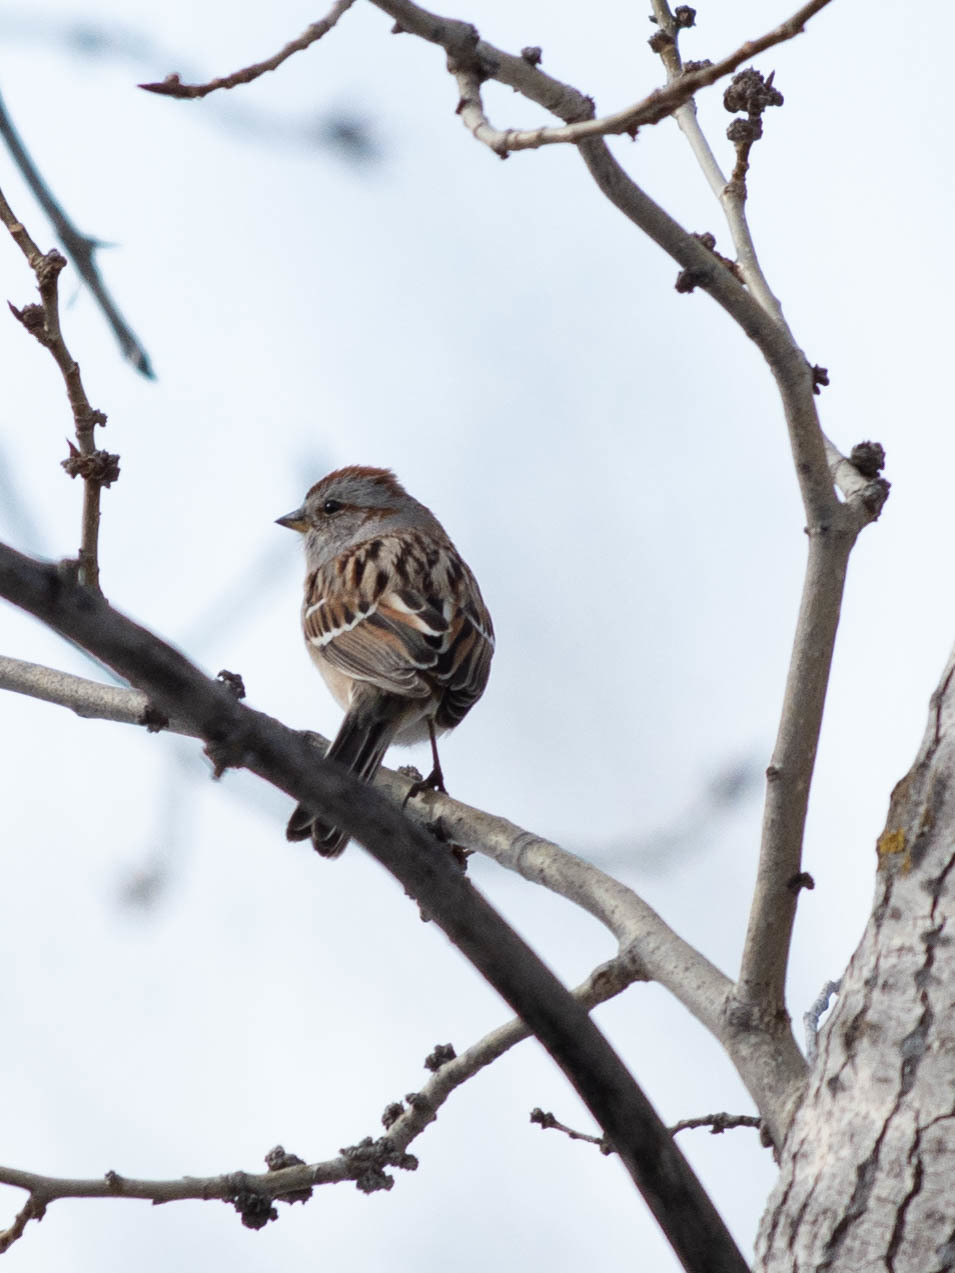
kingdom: Animalia
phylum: Chordata
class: Aves
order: Passeriformes
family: Passerellidae
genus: Spizelloides
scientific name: Spizelloides arborea
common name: American tree sparrow
